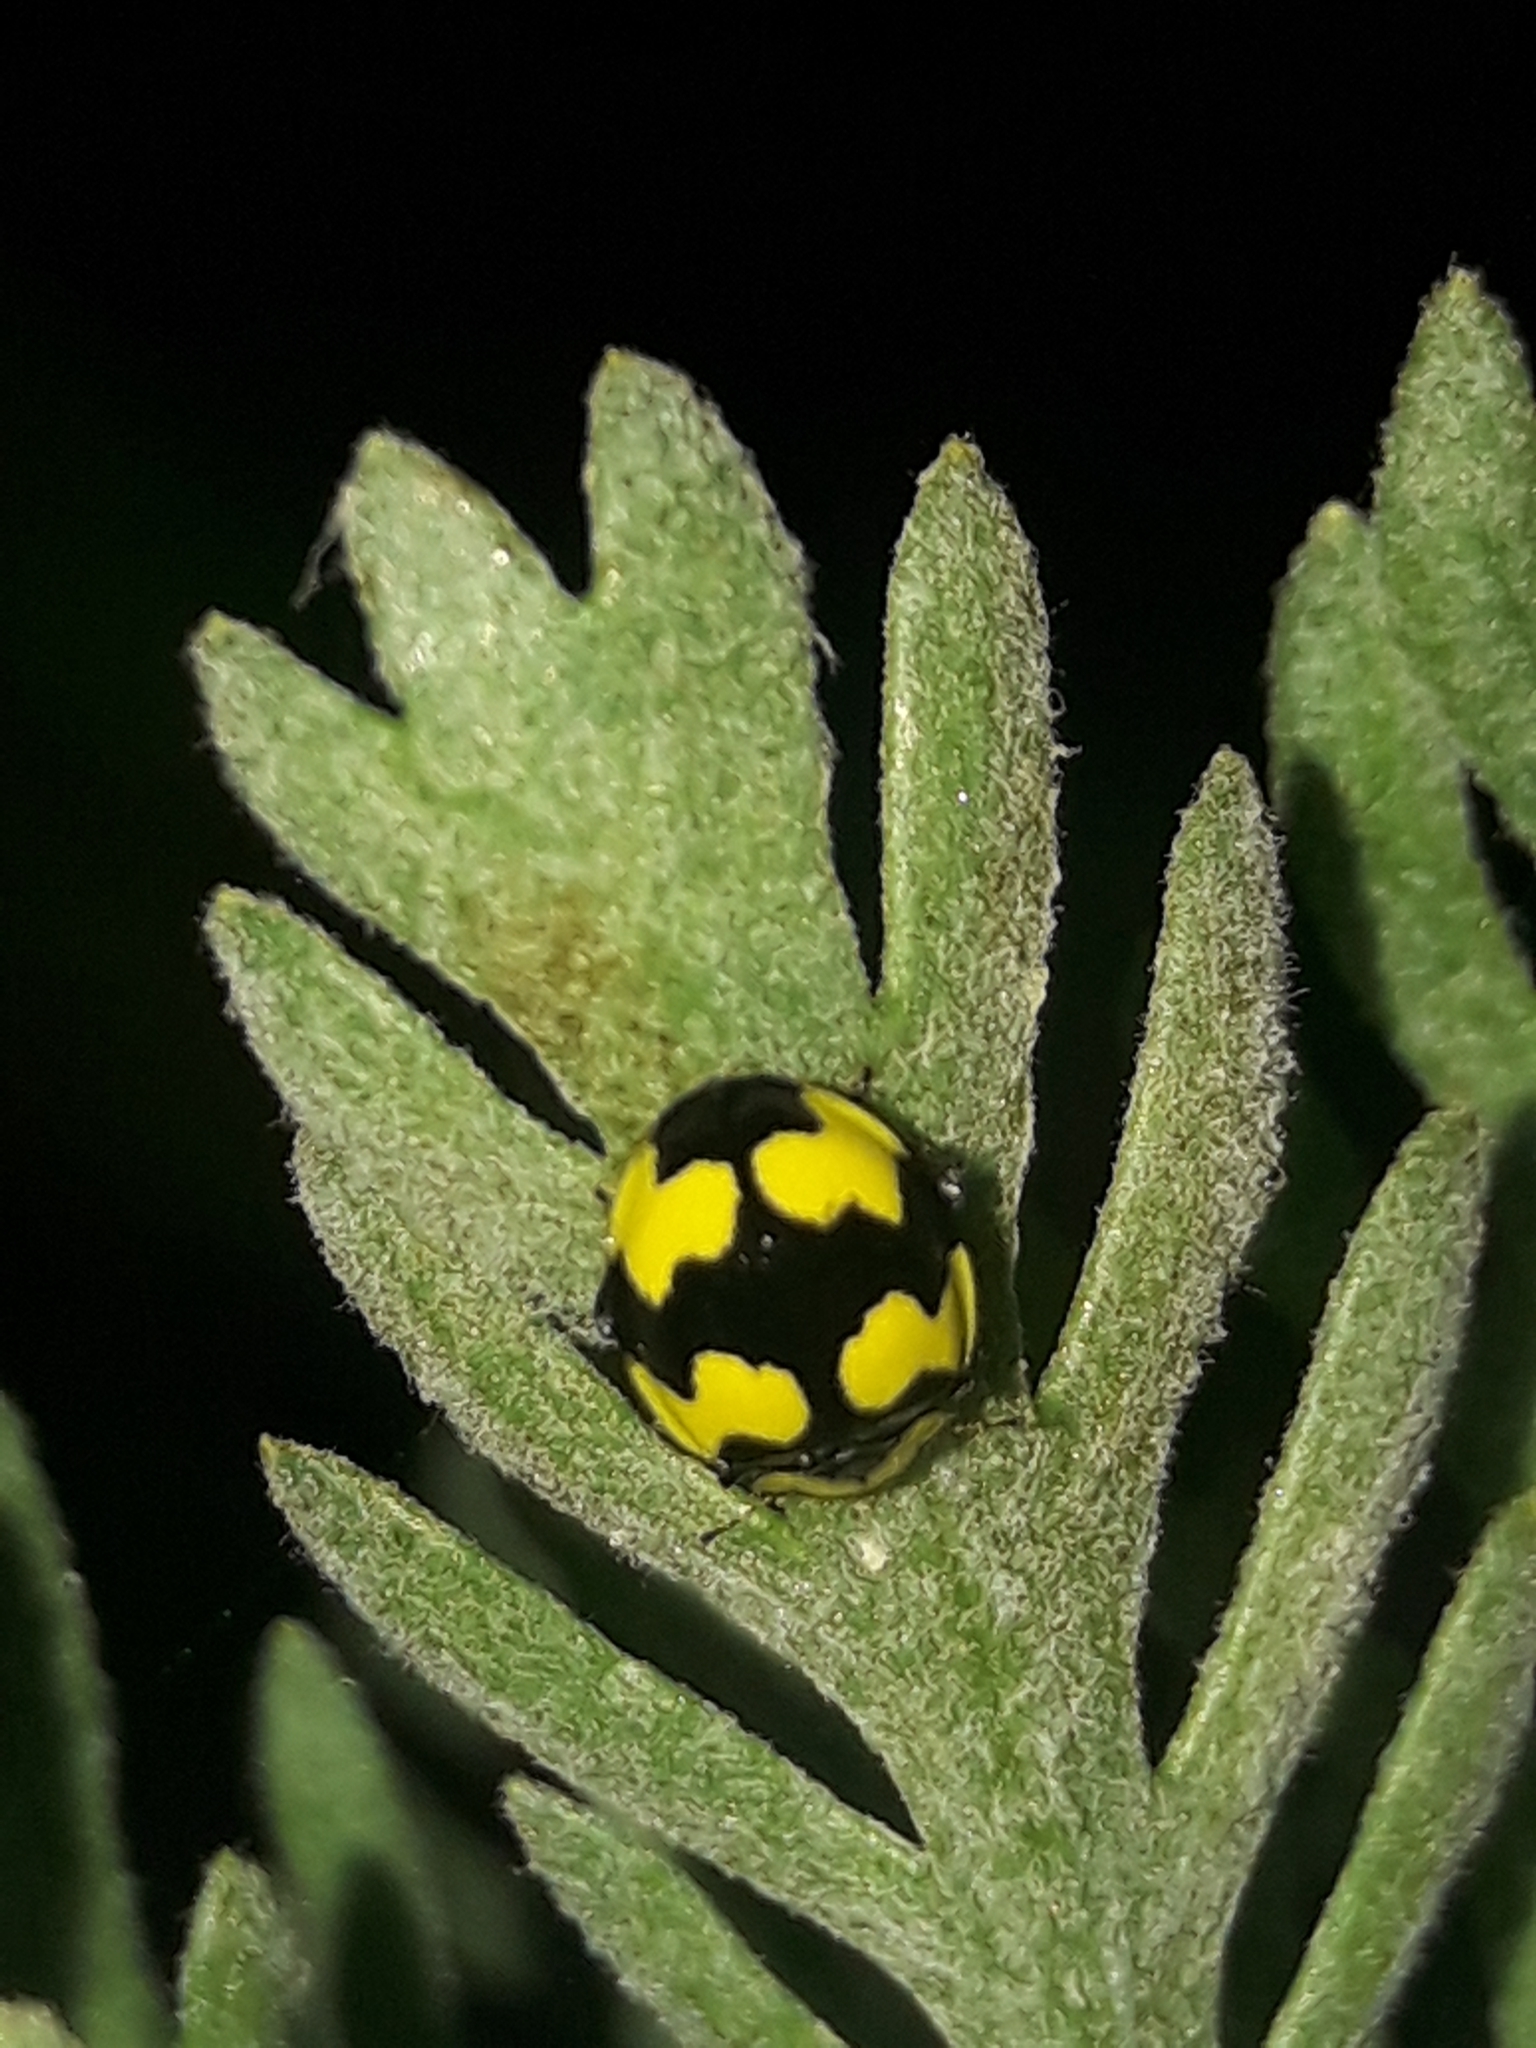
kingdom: Animalia
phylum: Arthropoda
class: Insecta
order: Coleoptera
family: Coccinellidae
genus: Illeis
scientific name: Illeis galbula
